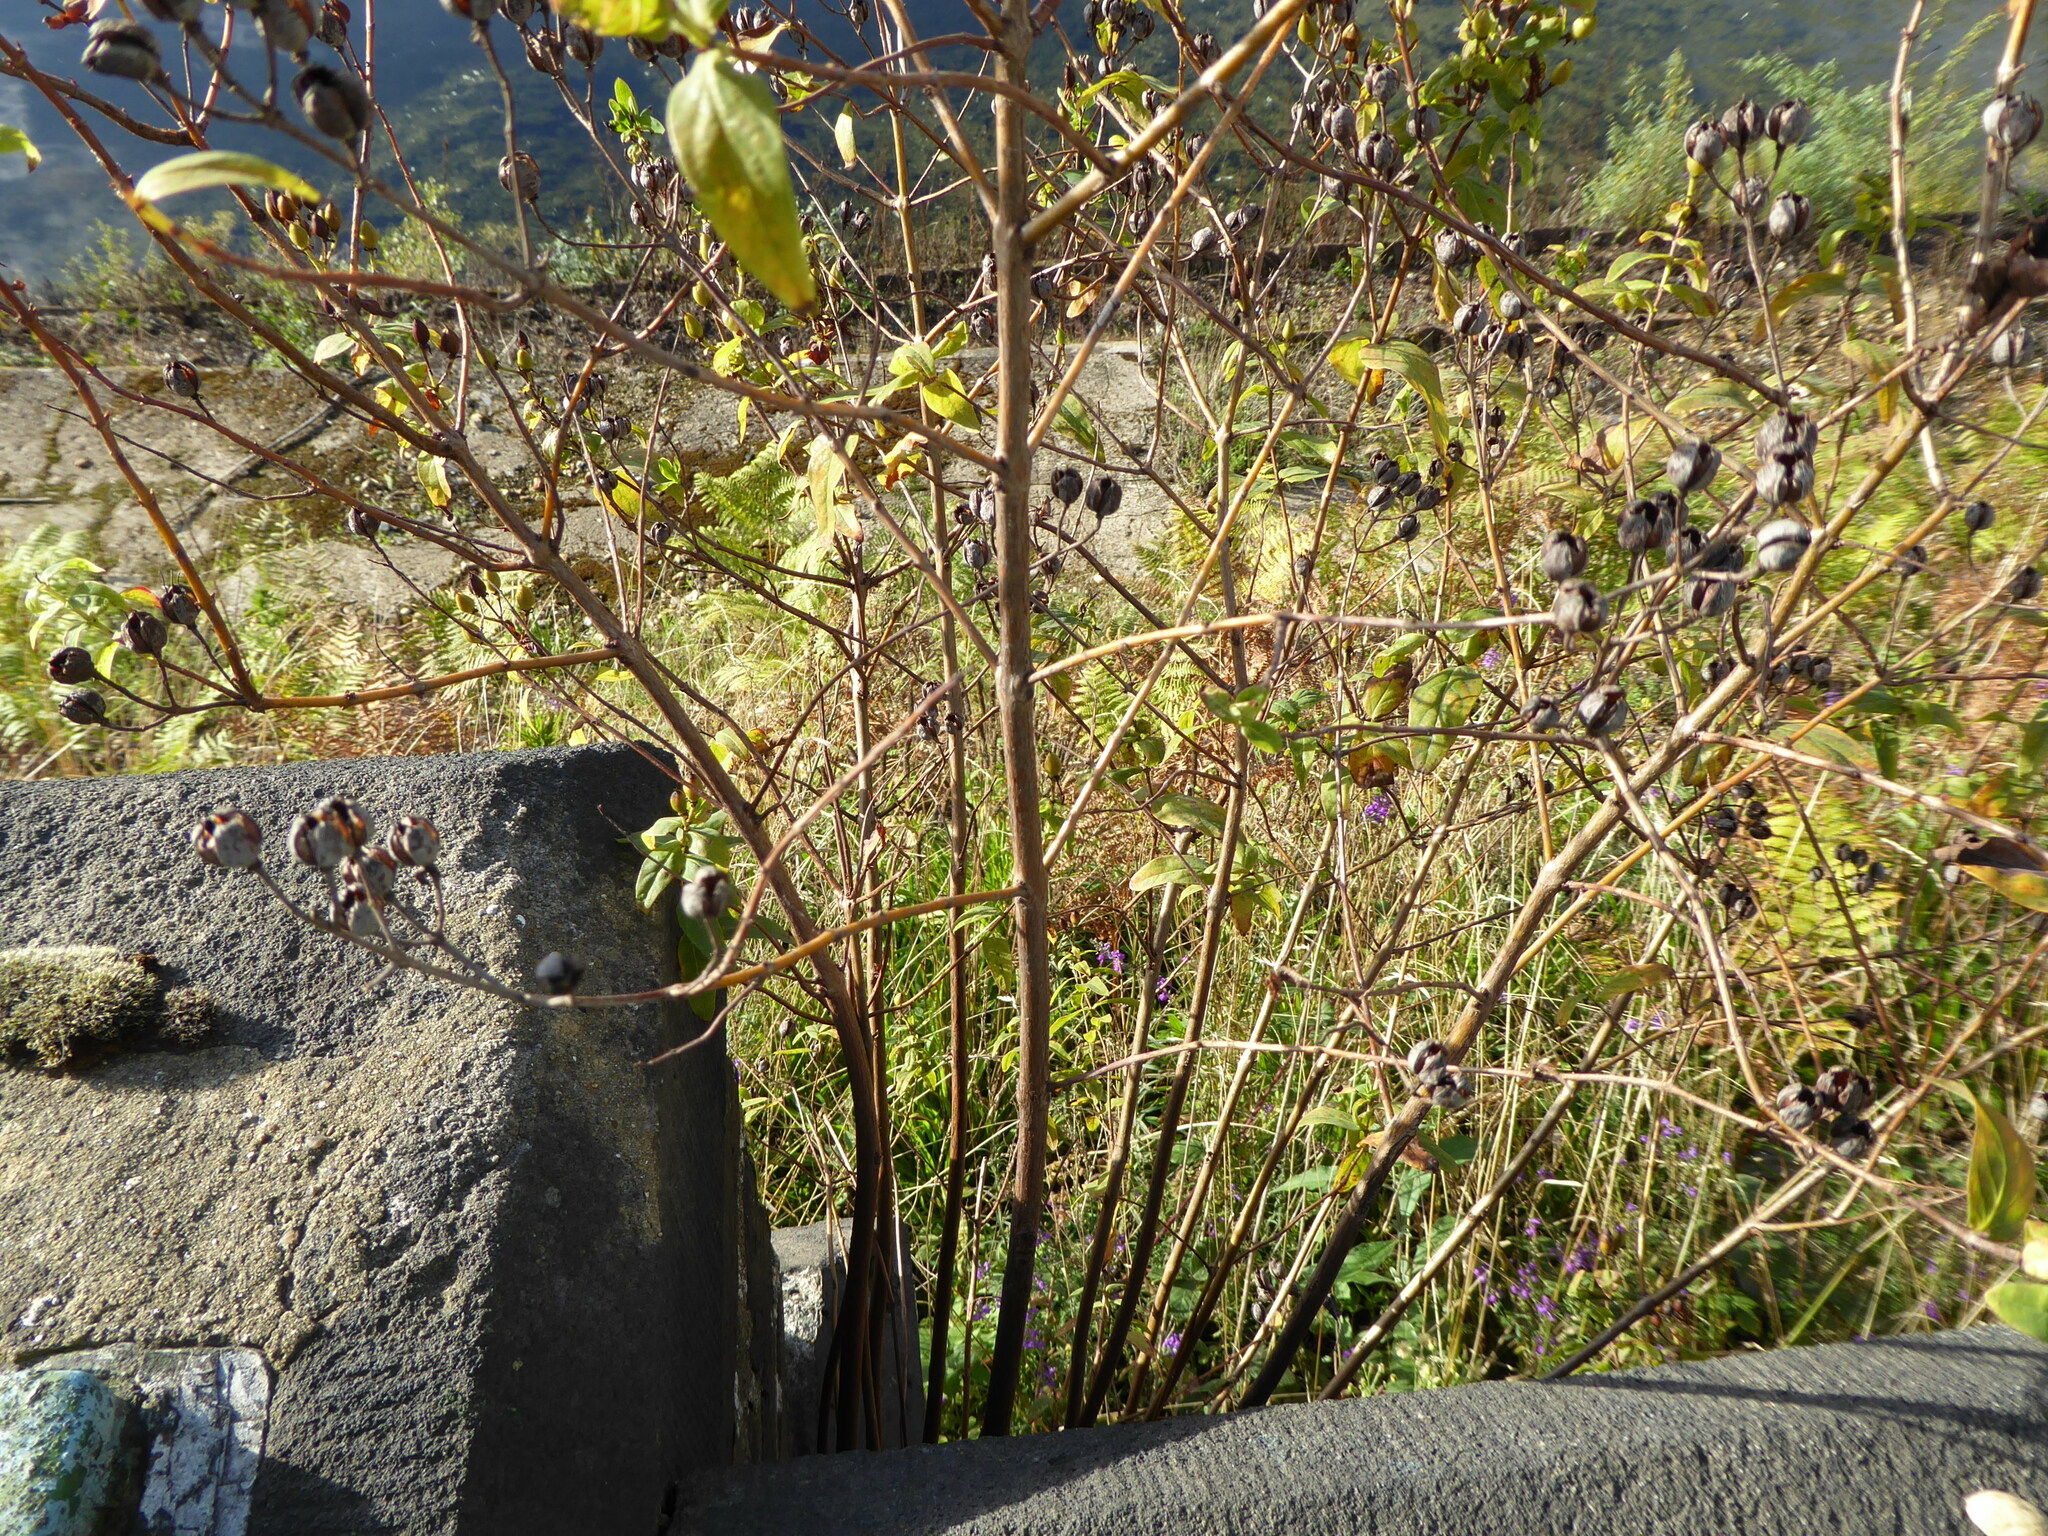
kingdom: Plantae
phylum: Tracheophyta
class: Magnoliopsida
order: Malpighiales
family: Hypericaceae
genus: Hypericum
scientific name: Hypericum hircinum
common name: Stinking tutsan
